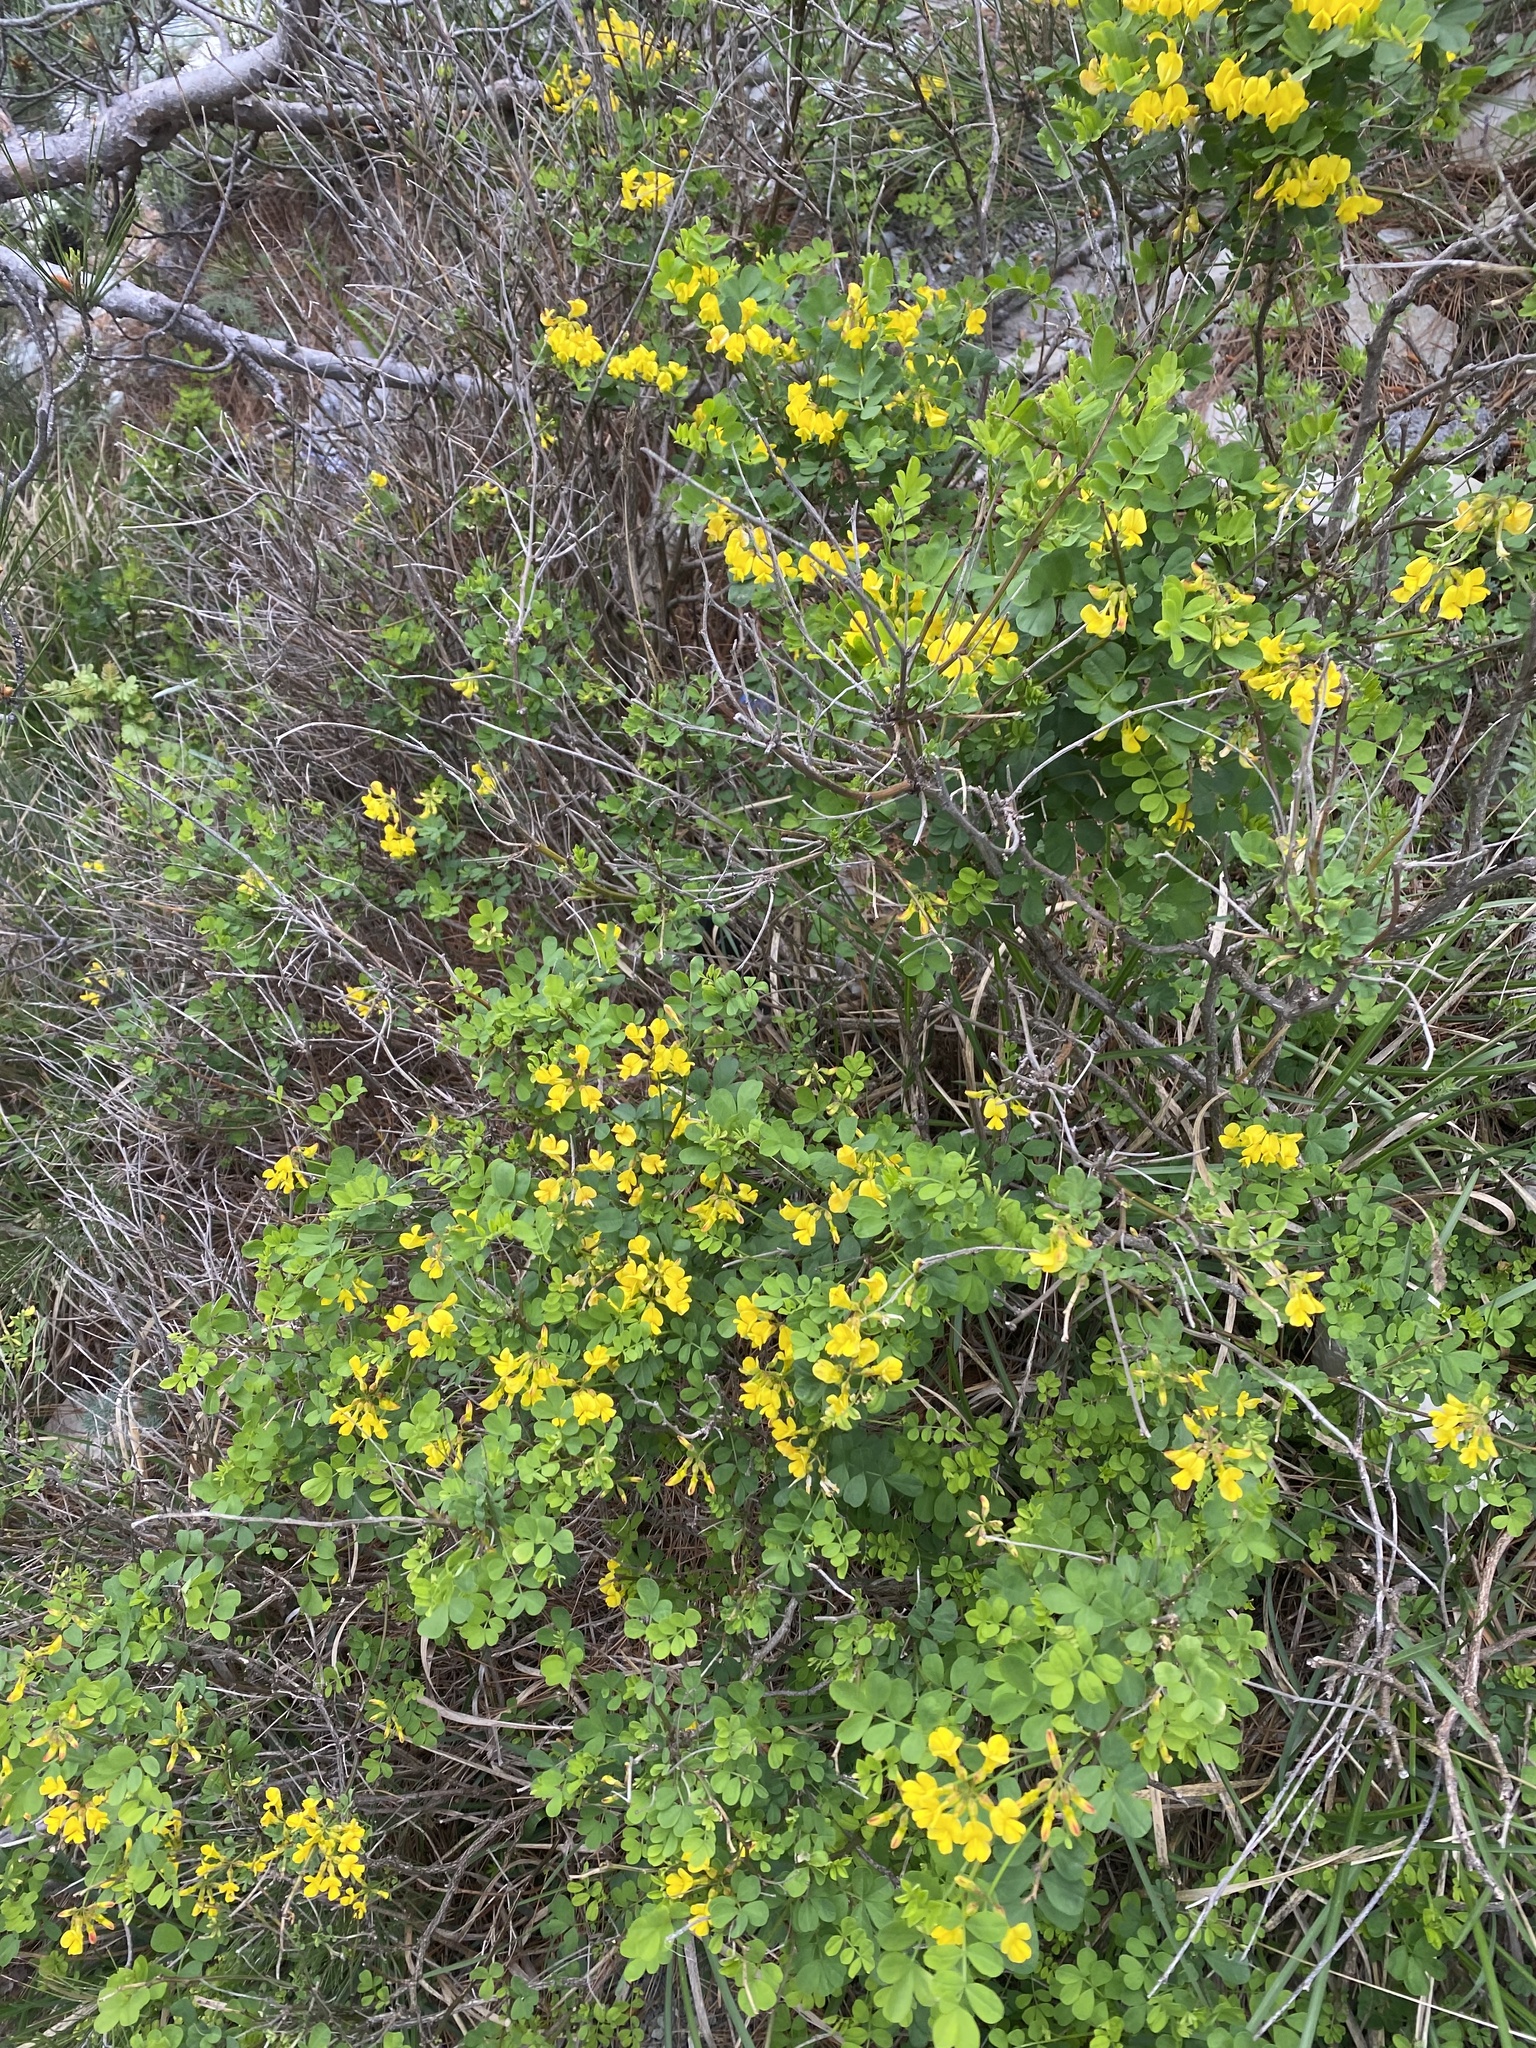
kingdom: Plantae
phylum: Tracheophyta
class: Magnoliopsida
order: Fabales
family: Fabaceae
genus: Hippocrepis
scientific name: Hippocrepis emerus
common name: Scorpion senna
